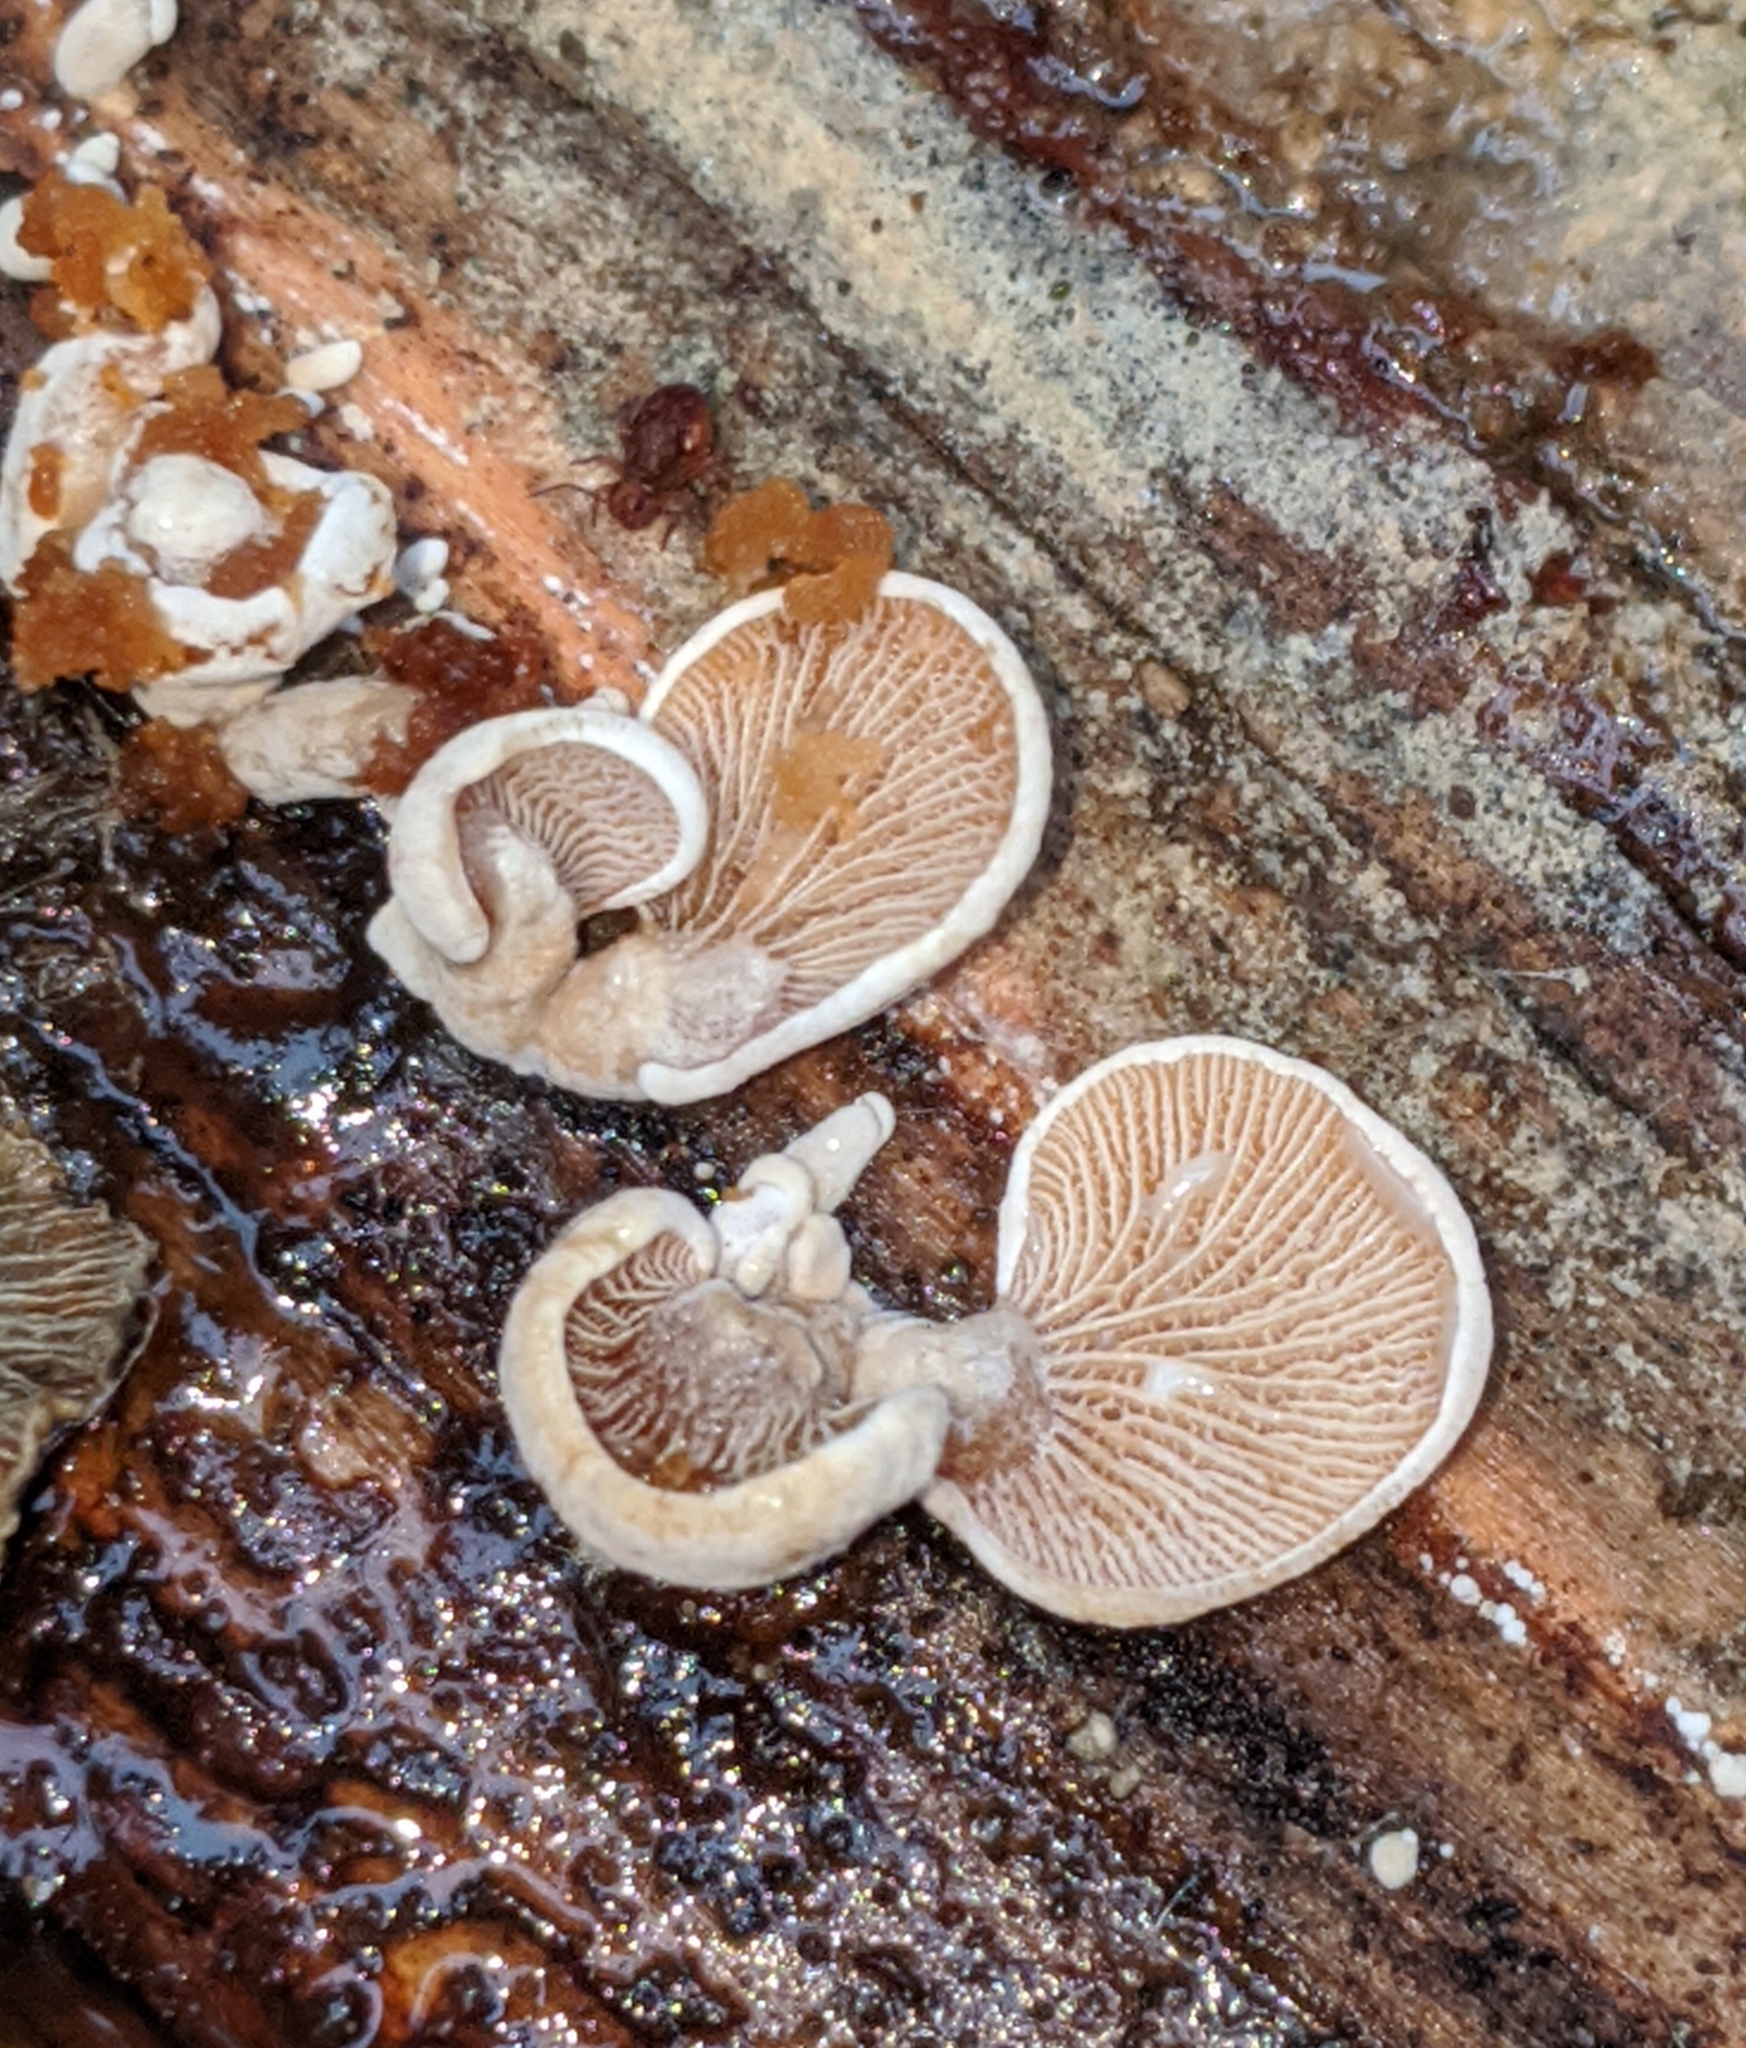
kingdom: Fungi
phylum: Basidiomycota
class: Agaricomycetes
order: Agaricales
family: Mycenaceae
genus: Panellus
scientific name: Panellus stipticus
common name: Bitter oysterling
